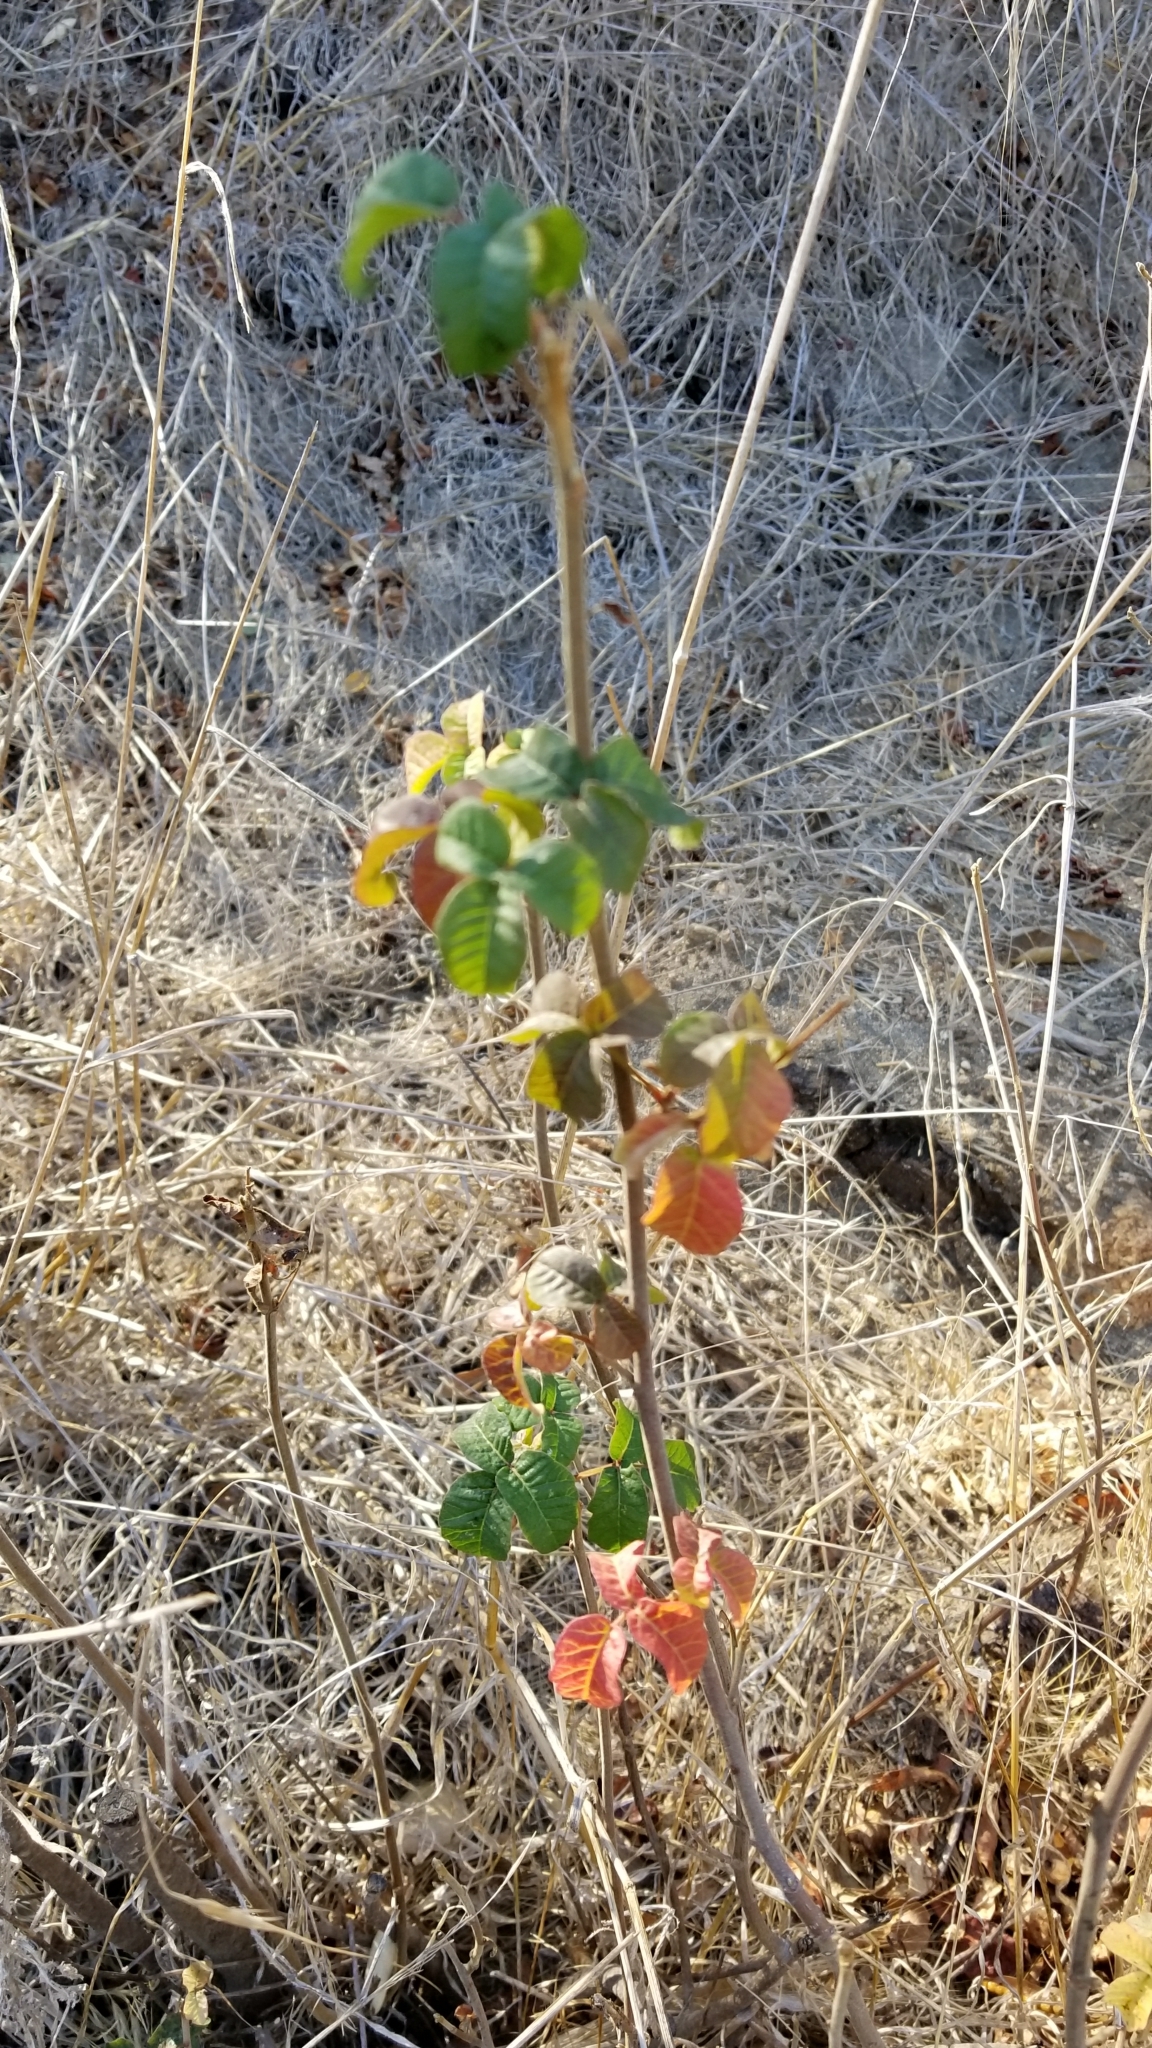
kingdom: Plantae
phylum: Tracheophyta
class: Magnoliopsida
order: Sapindales
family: Anacardiaceae
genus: Toxicodendron
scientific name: Toxicodendron diversilobum
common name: Pacific poison-oak
